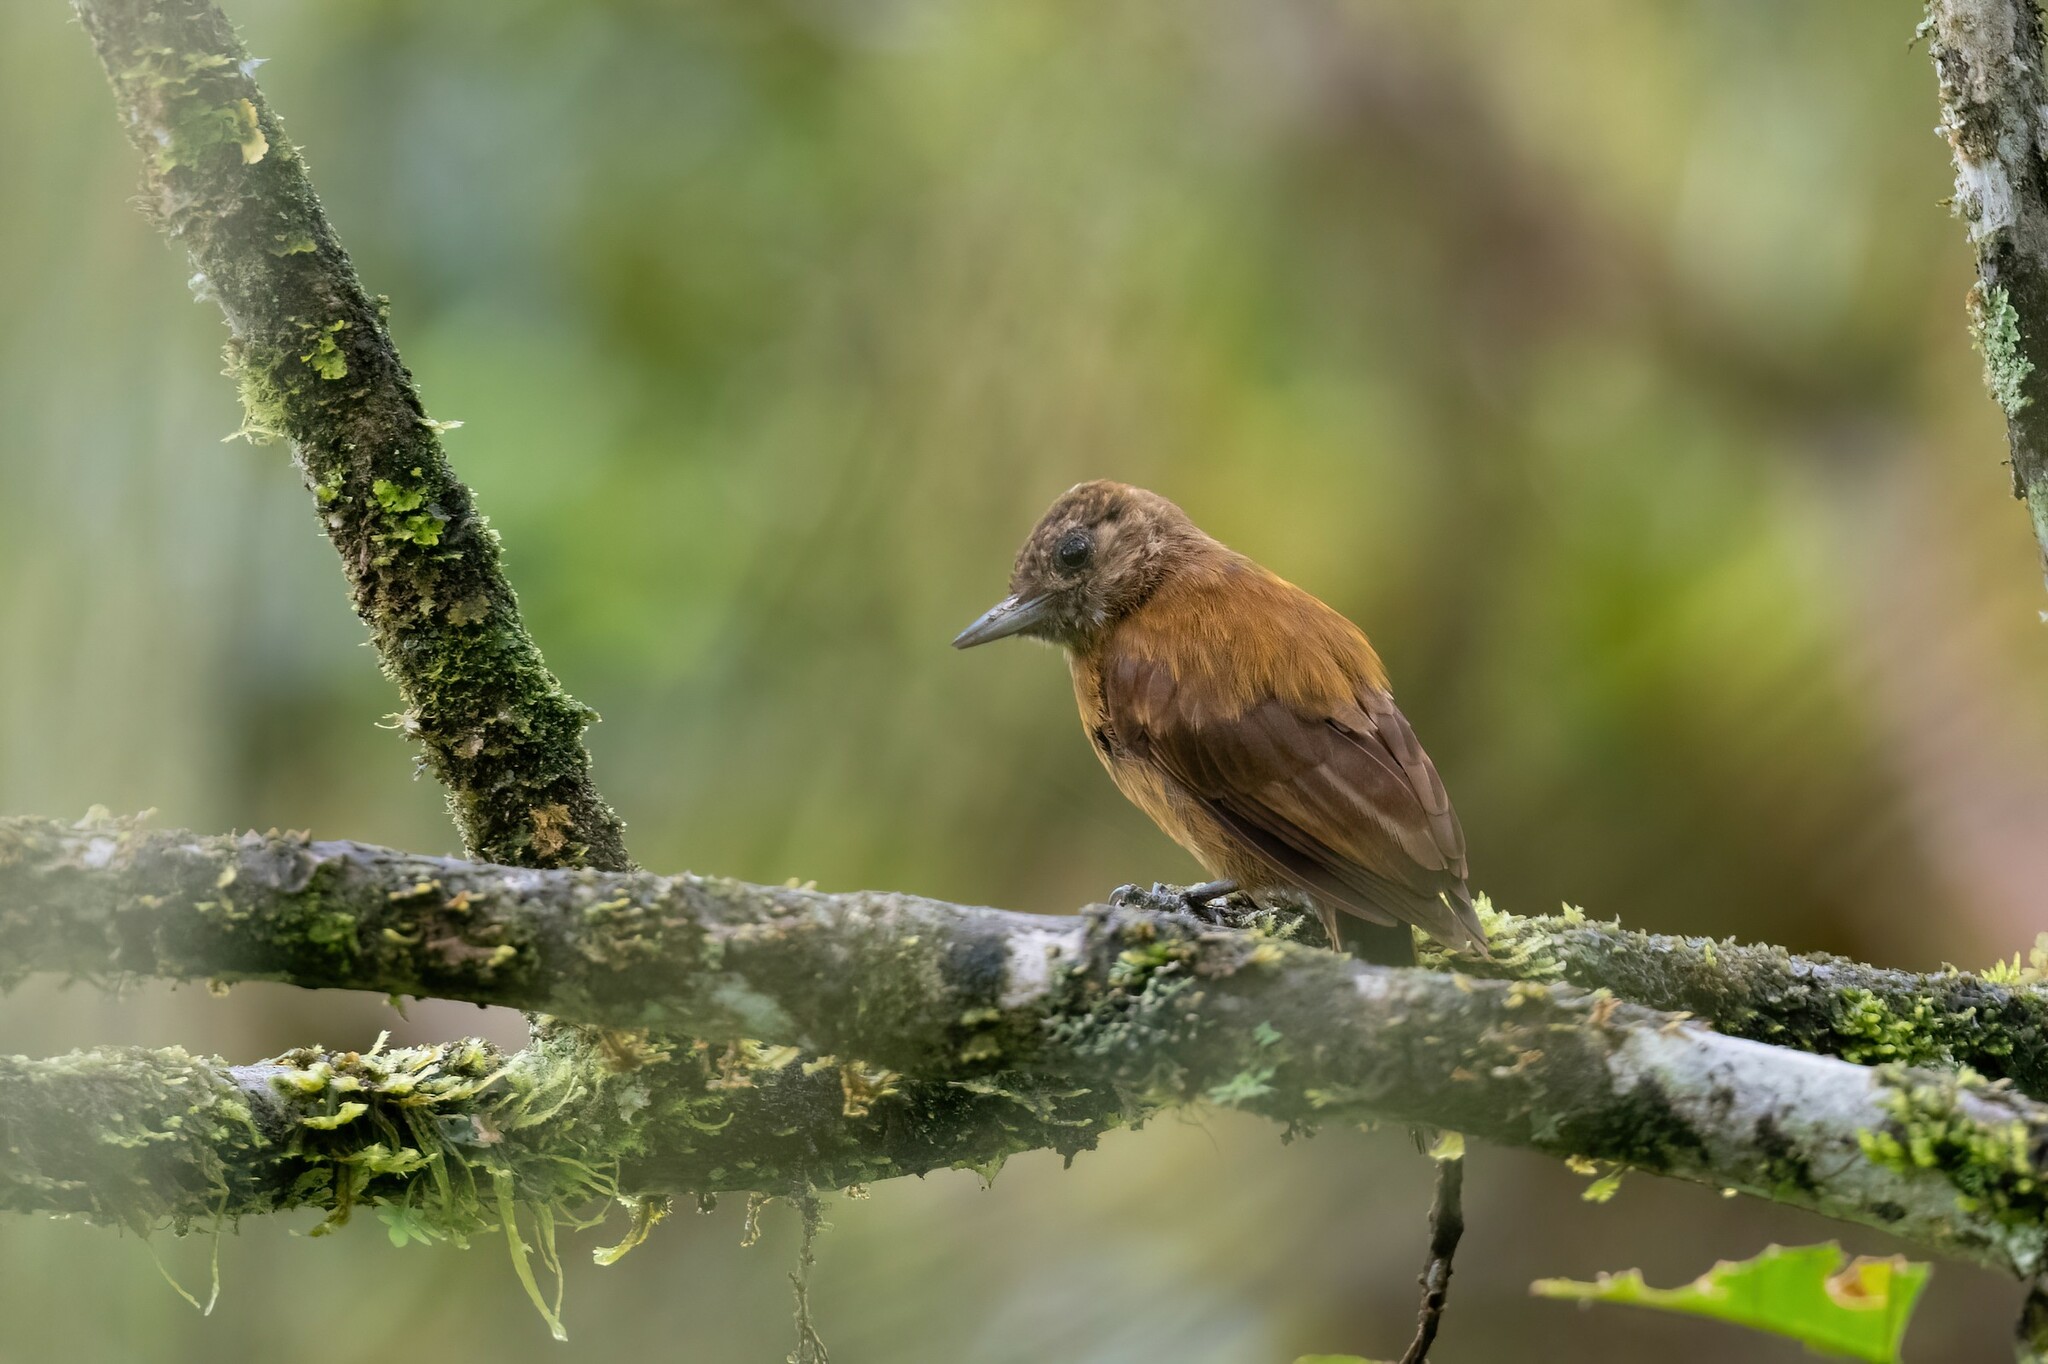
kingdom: Animalia
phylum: Chordata
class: Aves
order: Piciformes
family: Picidae
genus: Leuconotopicus
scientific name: Leuconotopicus fumigatus
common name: Smoky-brown woodpecker
